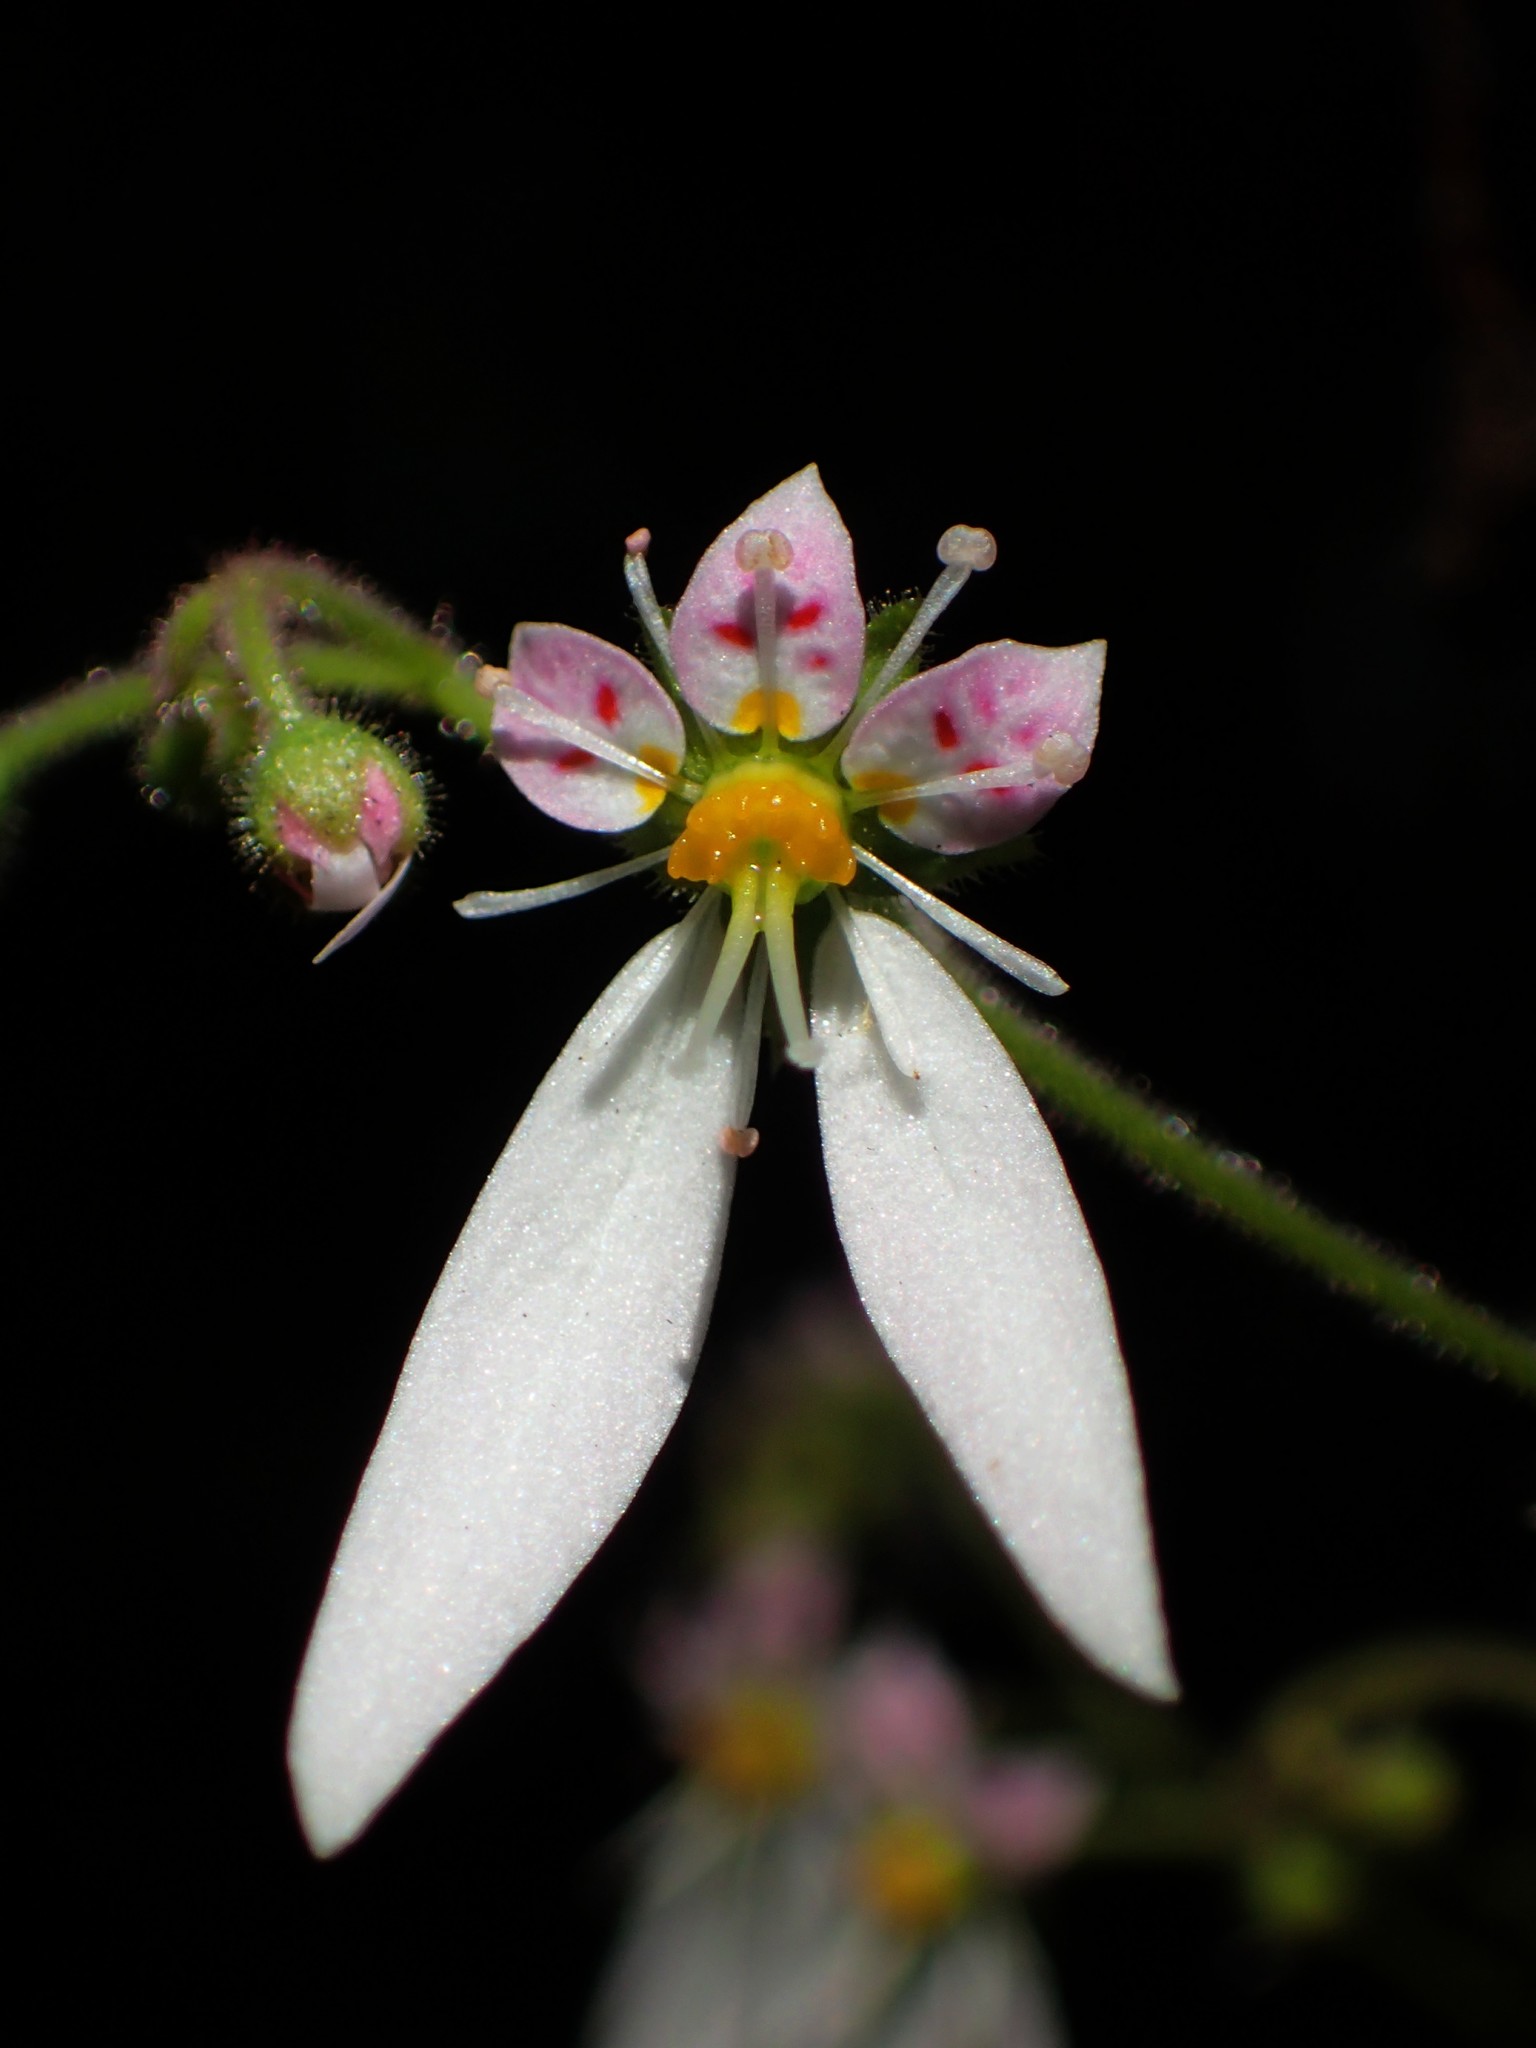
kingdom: Plantae
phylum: Tracheophyta
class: Magnoliopsida
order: Saxifragales
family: Saxifragaceae
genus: Saxifraga
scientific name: Saxifraga stolonifera
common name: Creeping saxifrage
